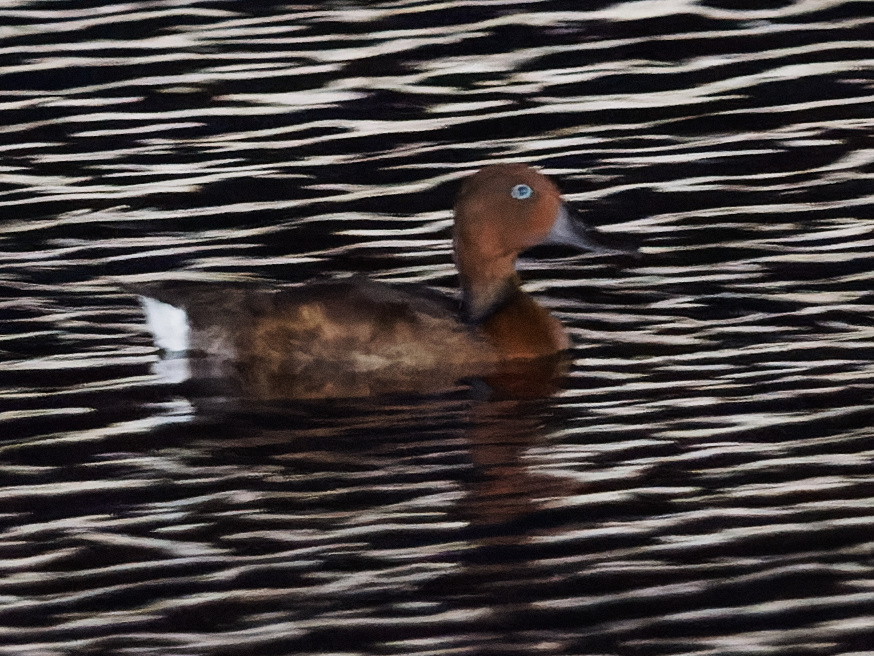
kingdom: Animalia
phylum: Chordata
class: Aves
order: Anseriformes
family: Anatidae
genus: Aythya
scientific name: Aythya nyroca
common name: Ferruginous duck
